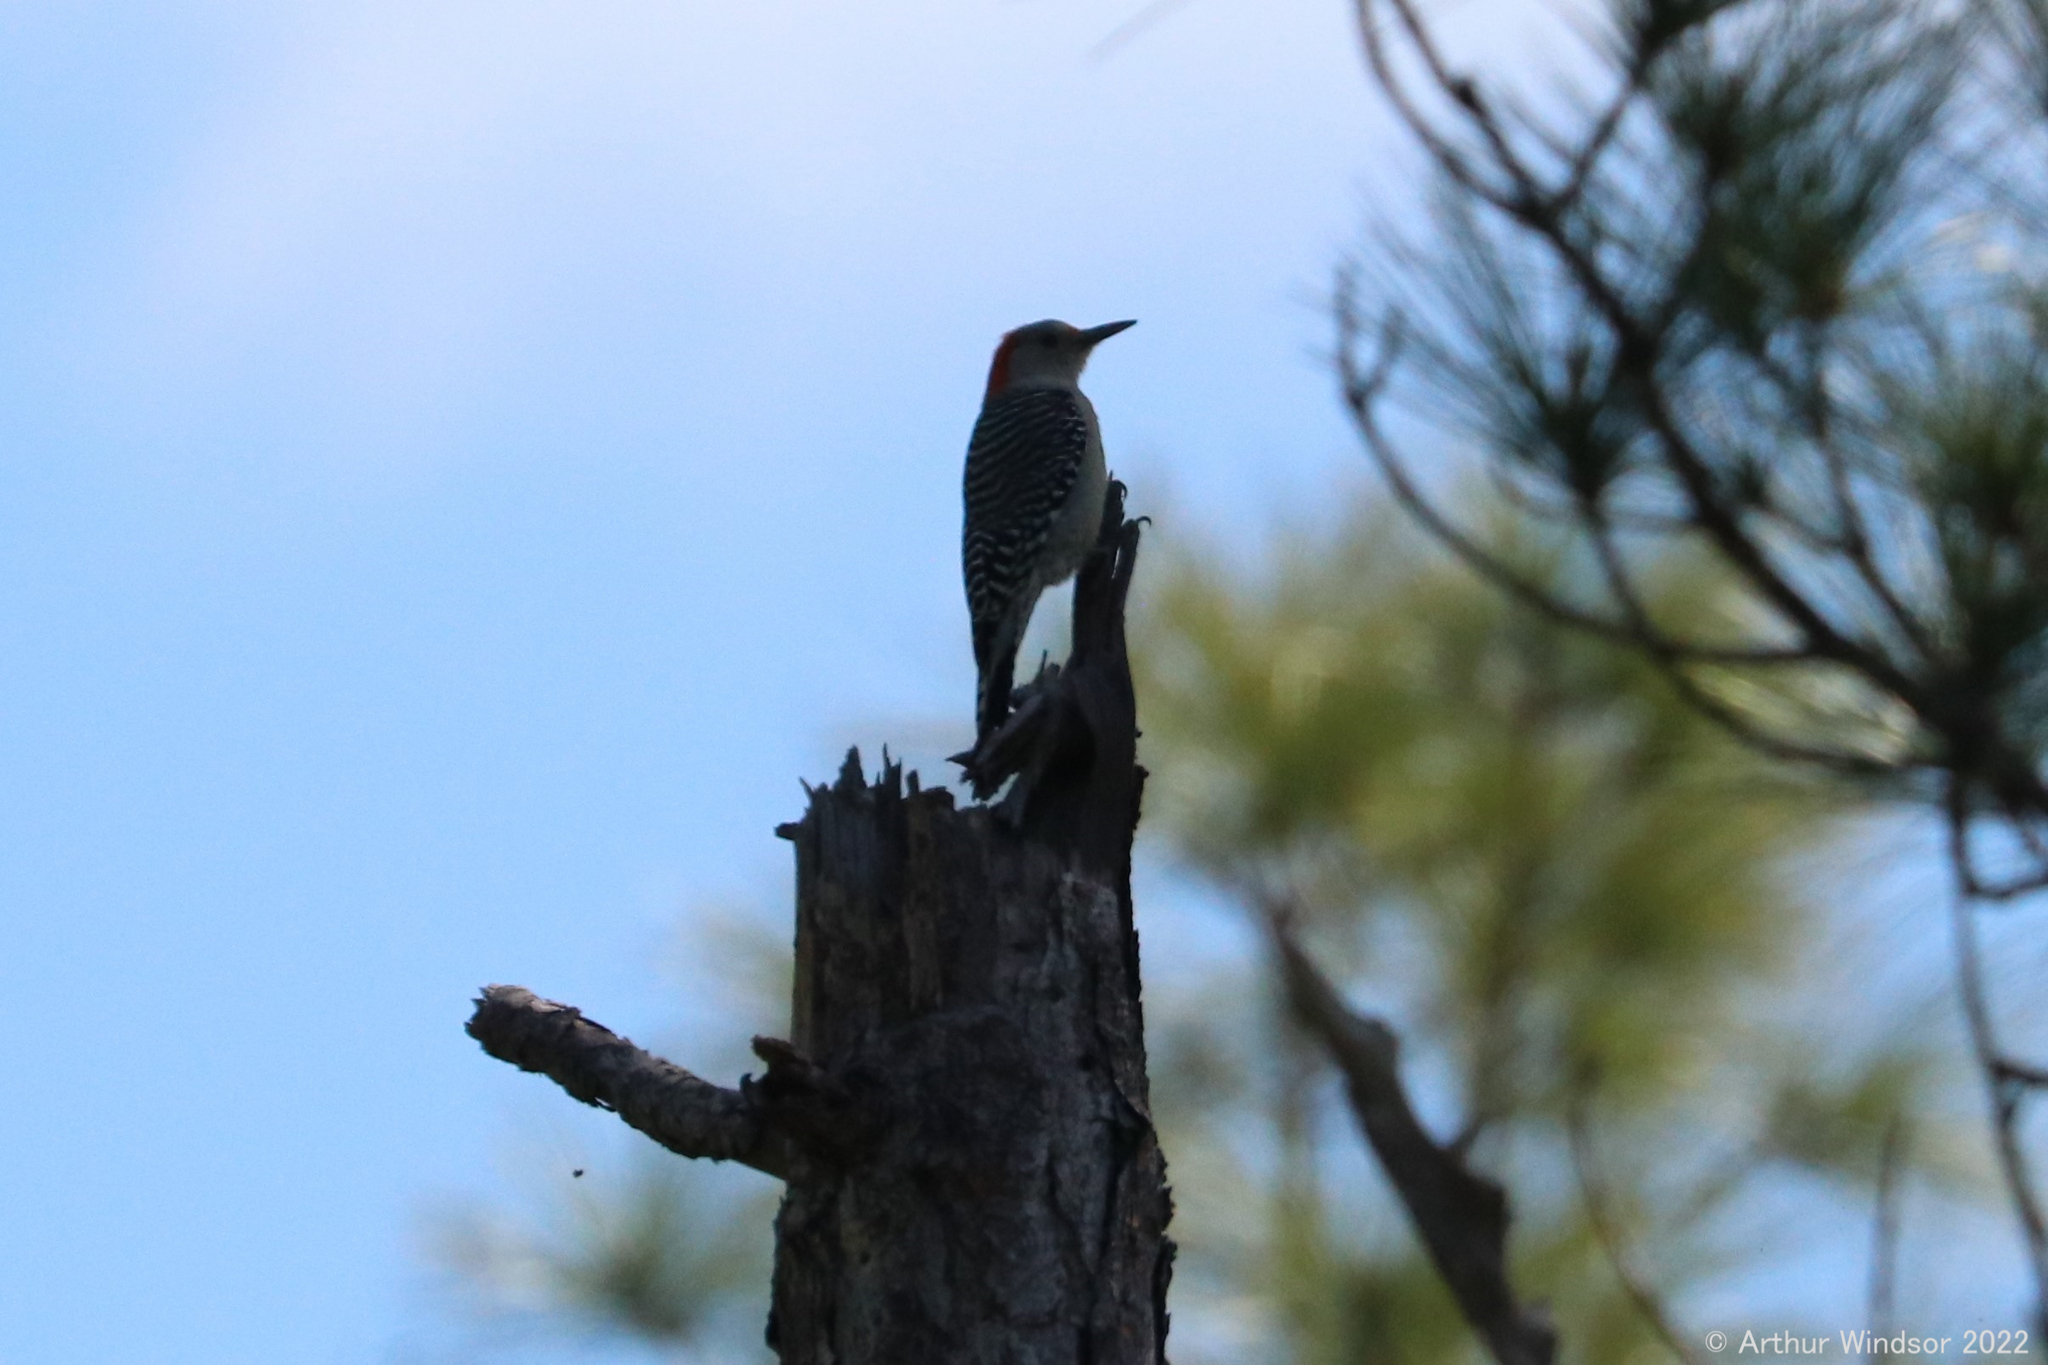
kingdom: Animalia
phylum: Chordata
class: Aves
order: Piciformes
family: Picidae
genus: Melanerpes
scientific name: Melanerpes carolinus
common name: Red-bellied woodpecker
